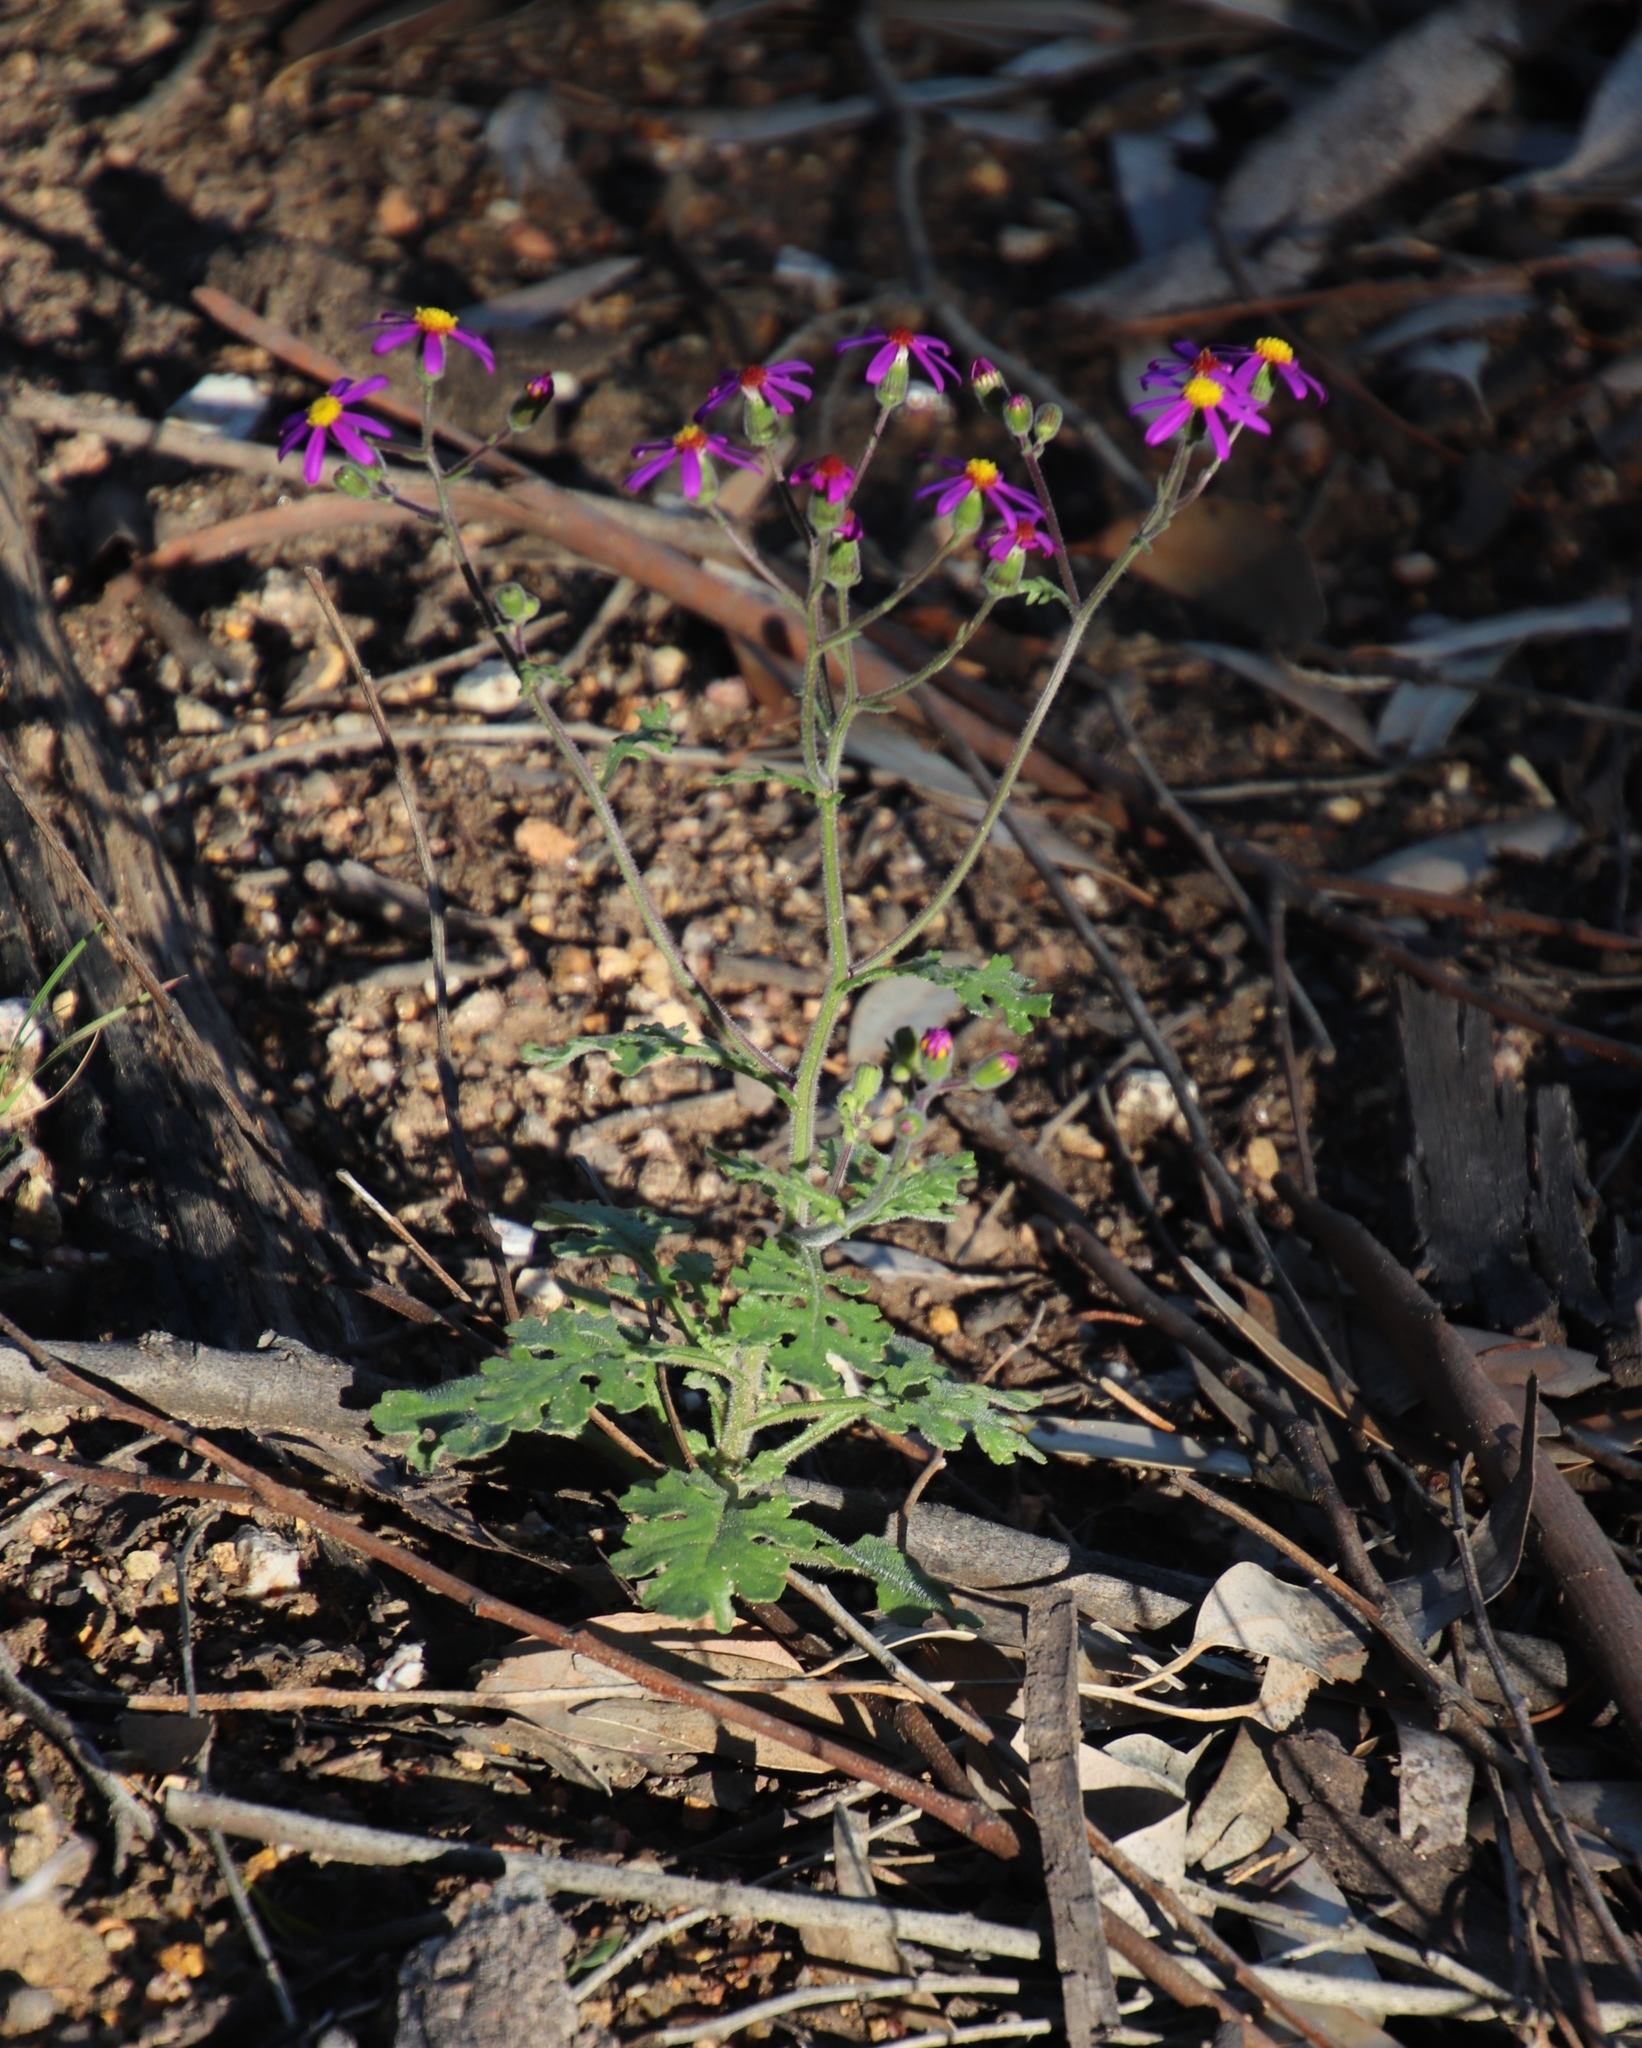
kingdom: Plantae
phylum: Tracheophyta
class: Magnoliopsida
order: Asterales
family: Asteraceae
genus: Senecio
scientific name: Senecio arenarius
